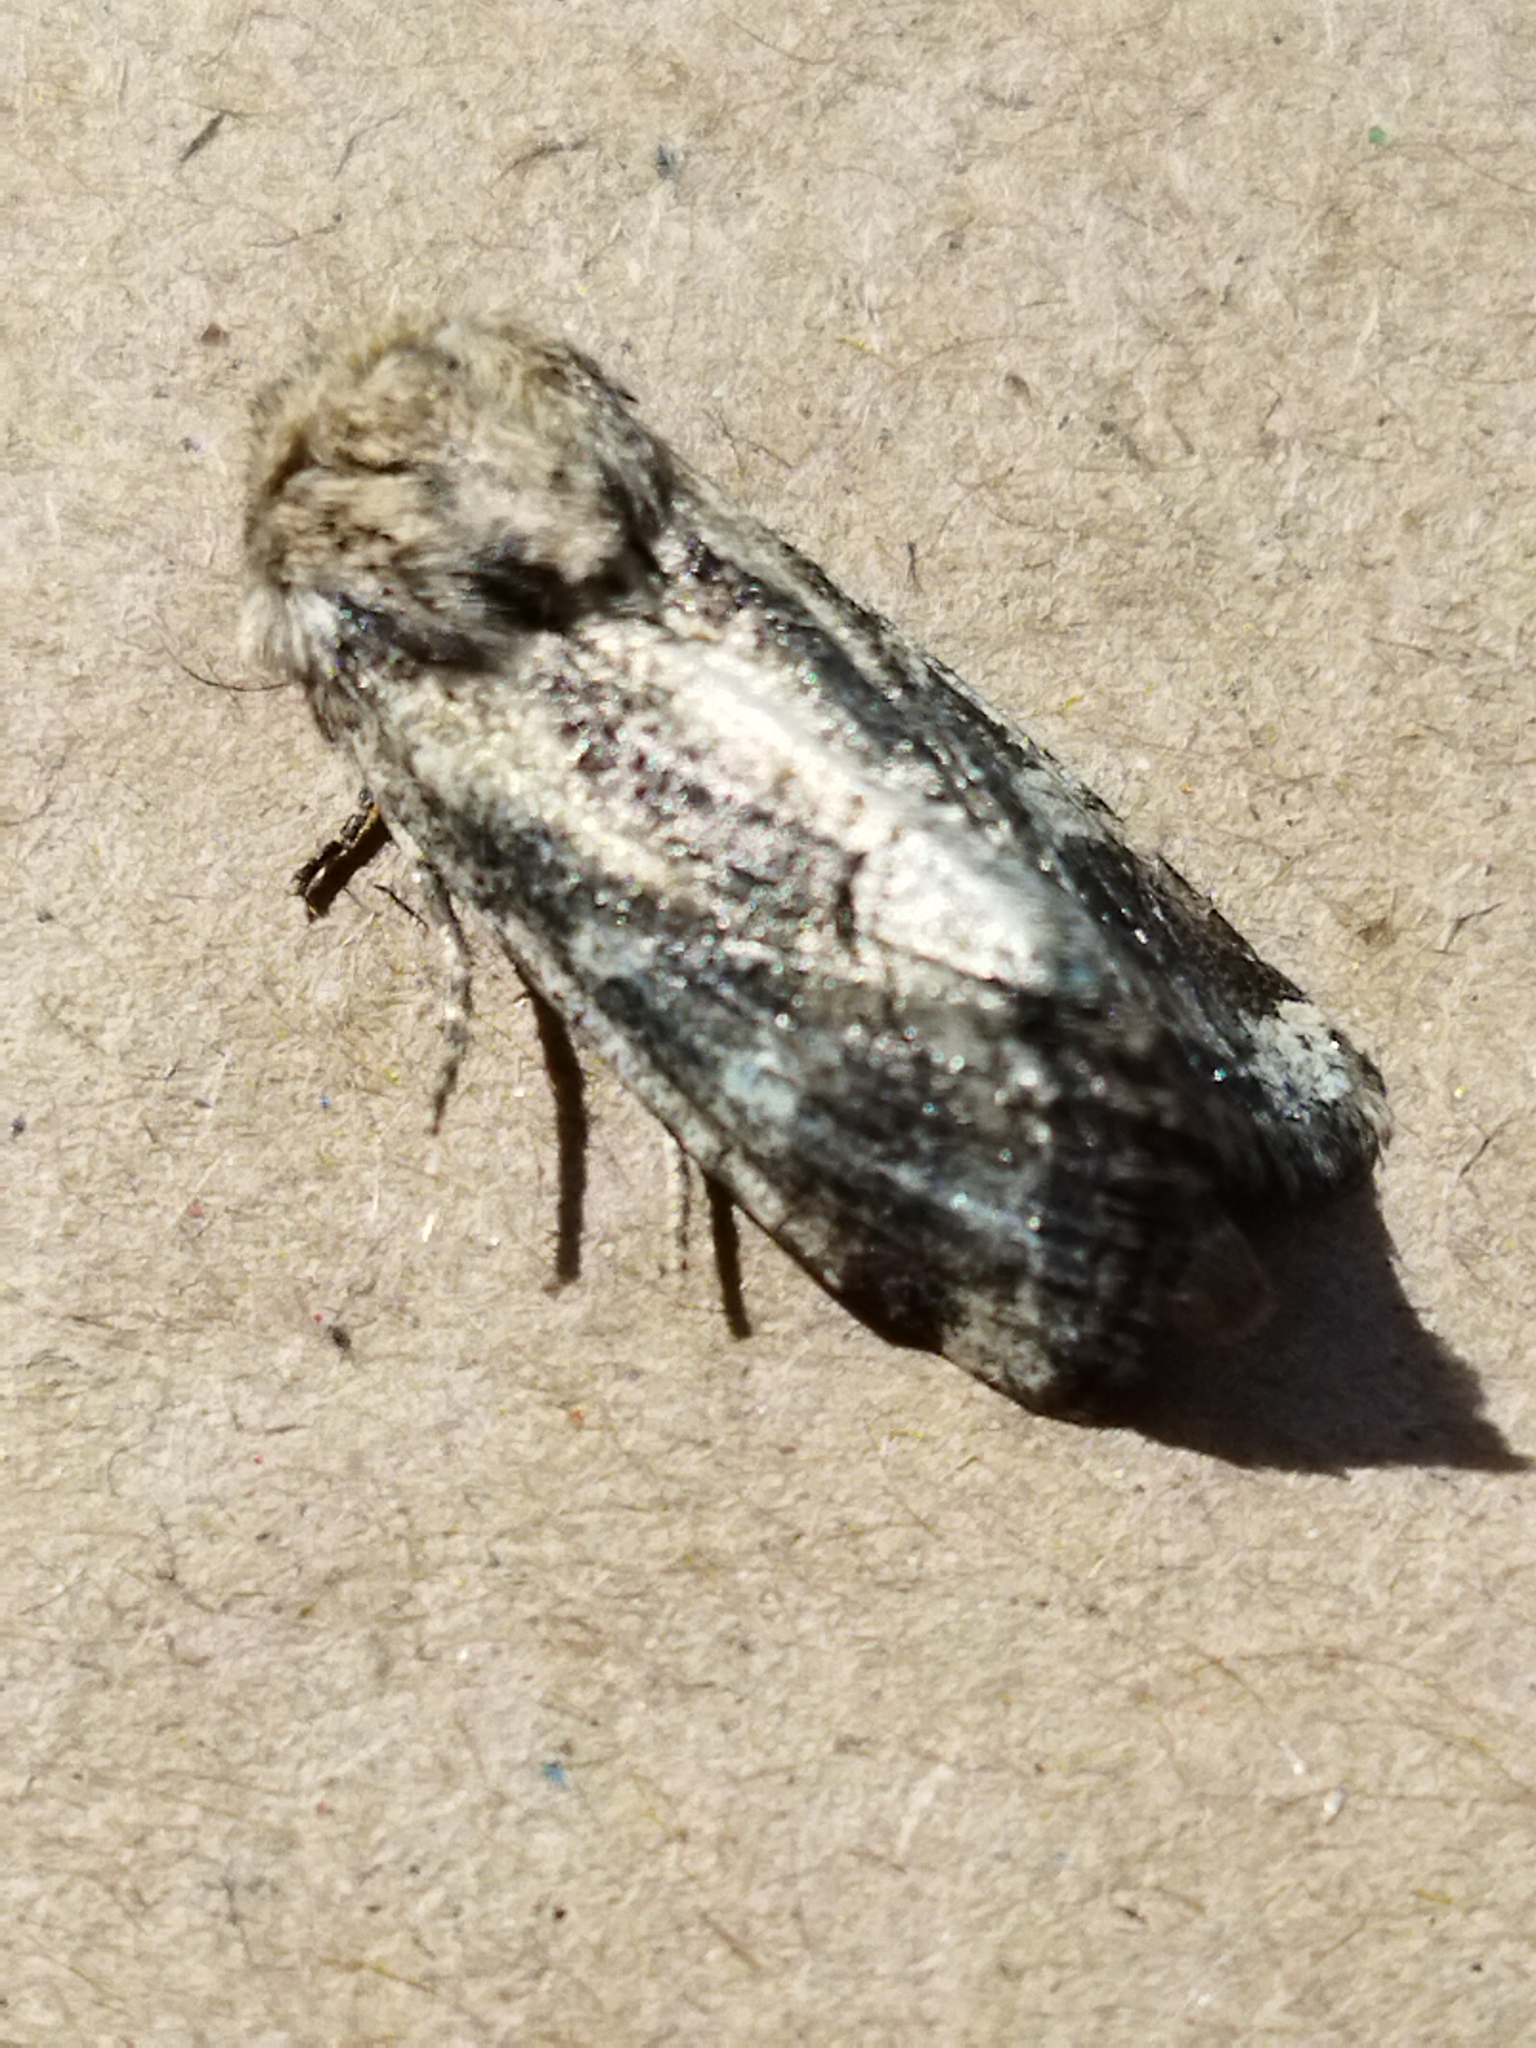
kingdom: Animalia
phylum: Arthropoda
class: Insecta
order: Lepidoptera
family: Noctuidae
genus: Luperina
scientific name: Luperina dumerilii
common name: Dumeril's rustic
